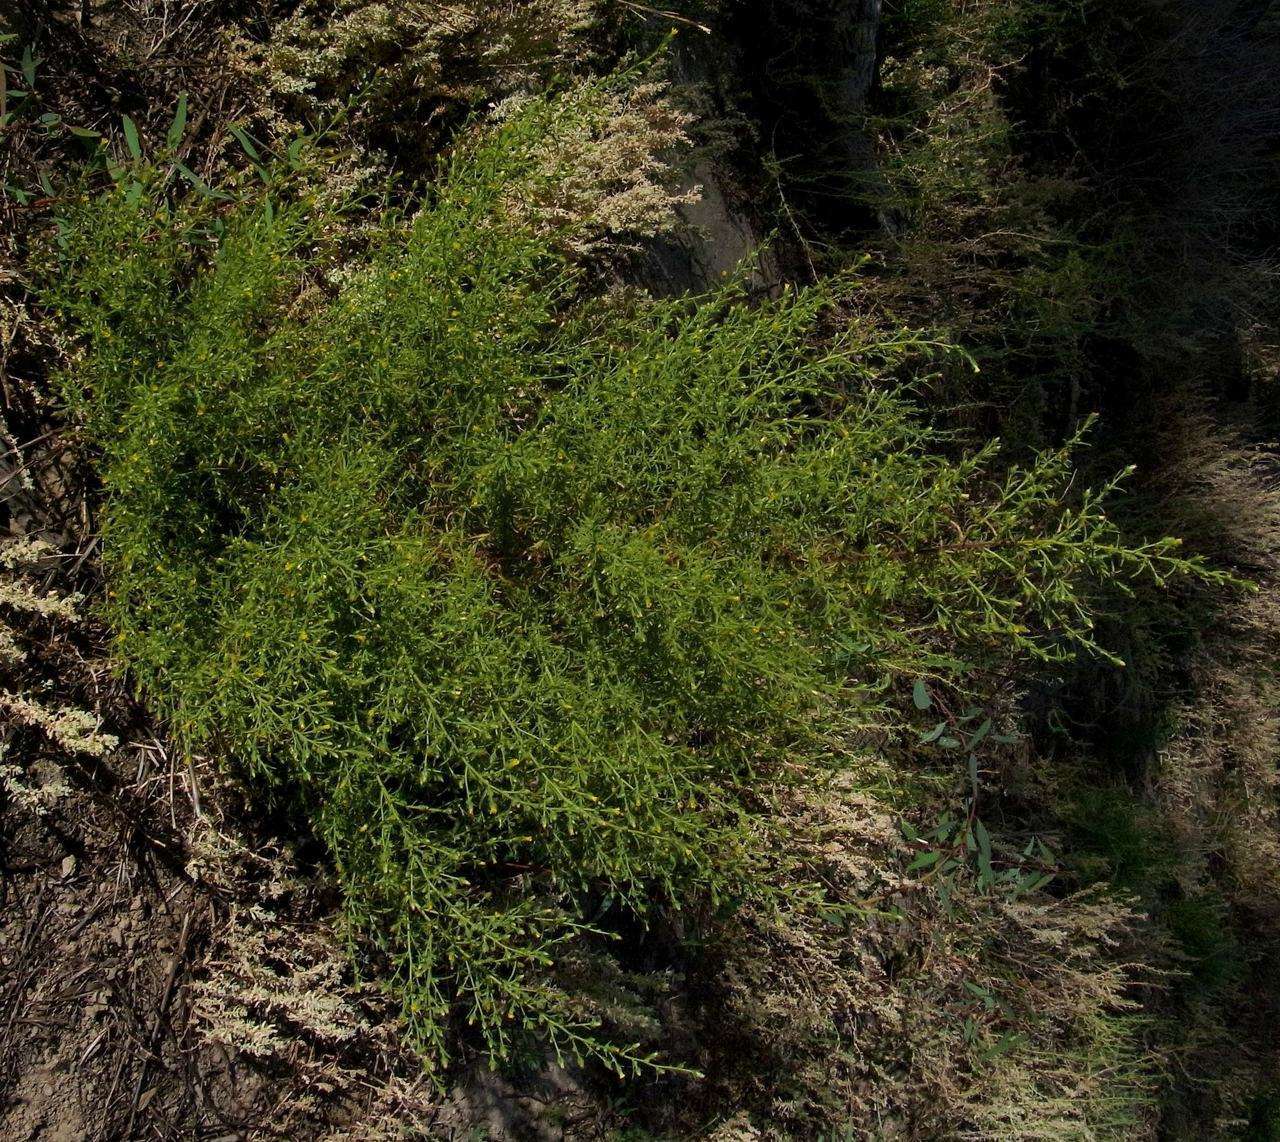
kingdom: Plantae
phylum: Tracheophyta
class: Magnoliopsida
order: Asterales
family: Asteraceae
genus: Dittrichia
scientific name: Dittrichia graveolens
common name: Stinking fleabane
